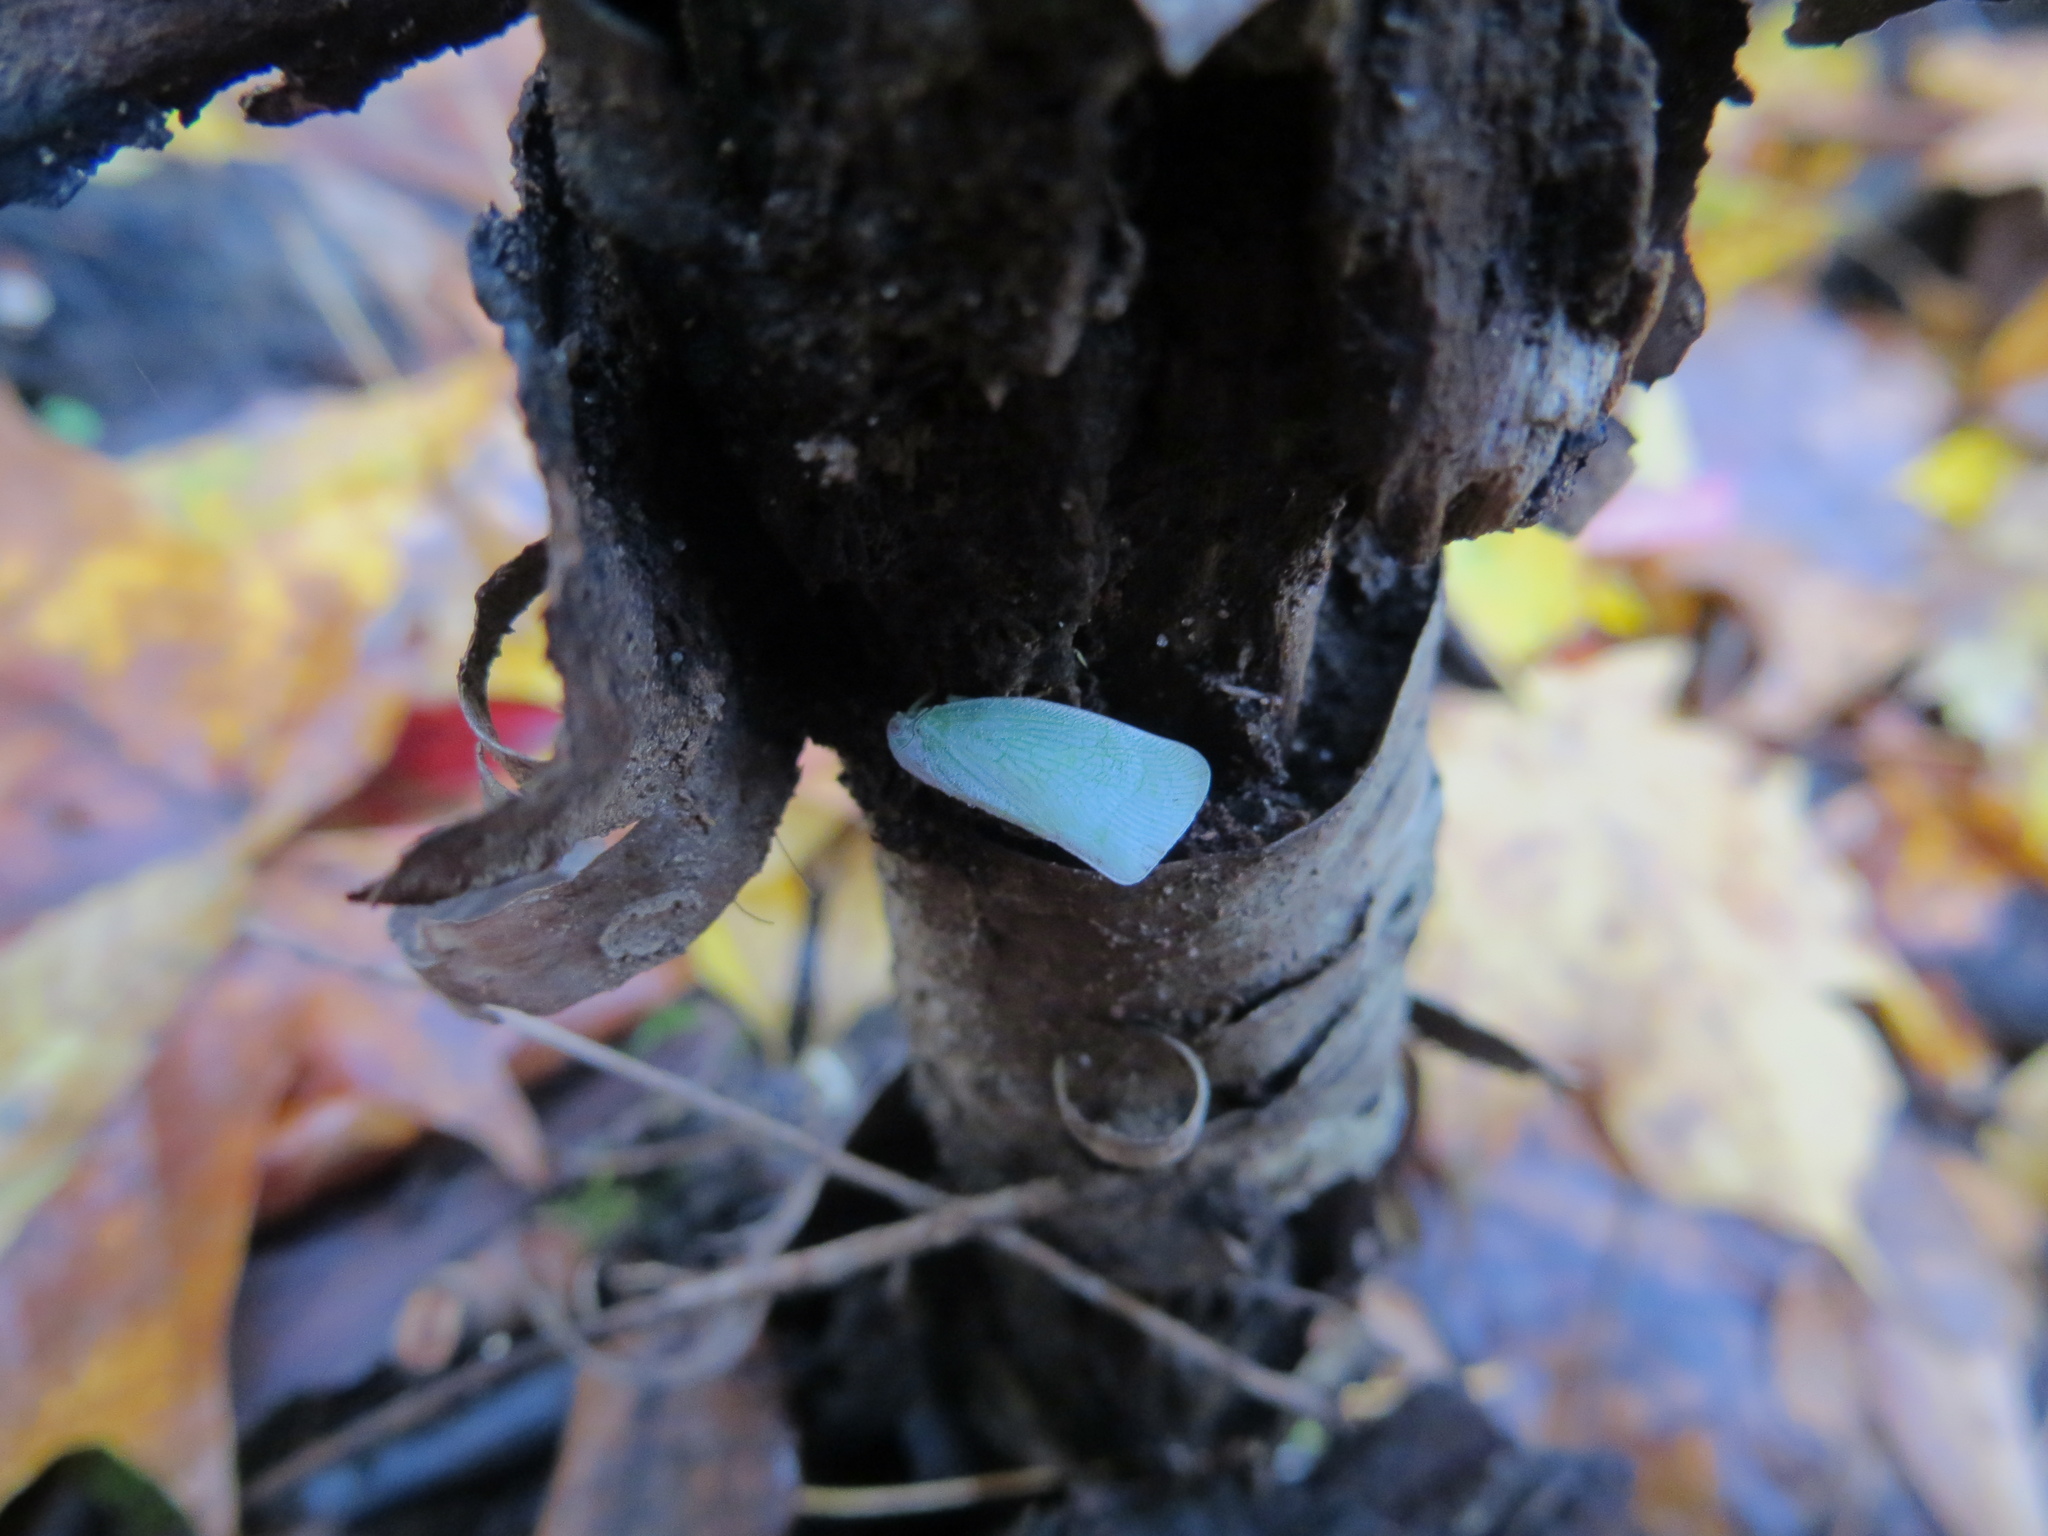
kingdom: Animalia
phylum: Arthropoda
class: Insecta
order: Hemiptera
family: Flatidae
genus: Flatormenis
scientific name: Flatormenis proxima
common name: Northern flatid planthopper
